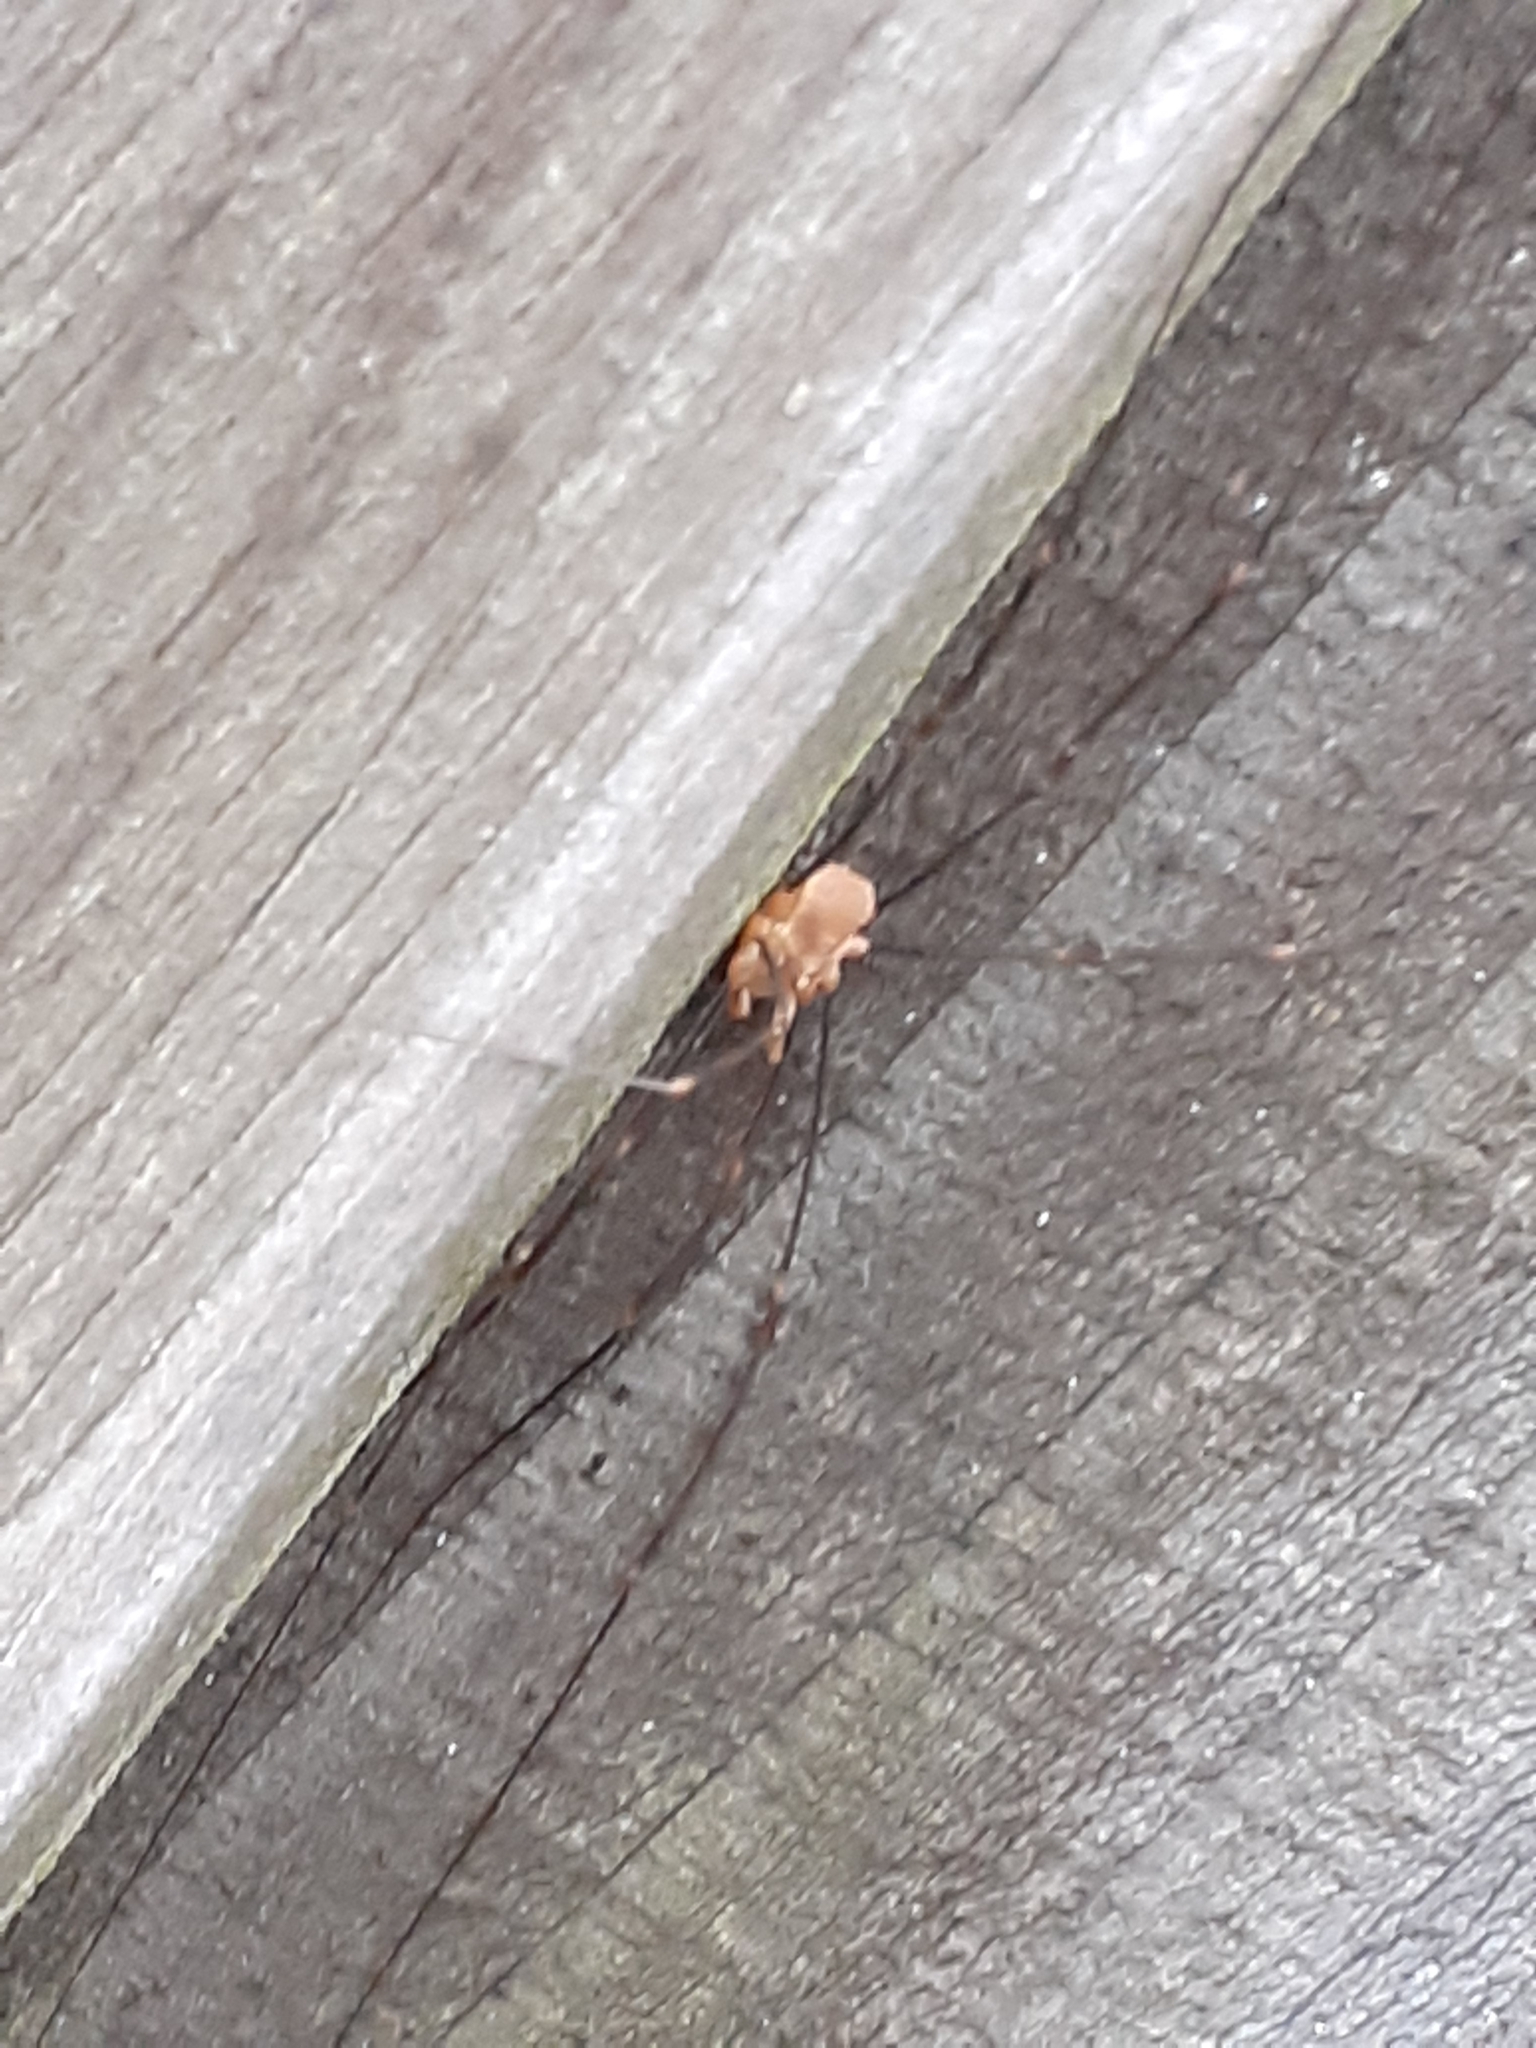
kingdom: Animalia
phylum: Arthropoda
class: Arachnida
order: Opiliones
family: Phalangiidae
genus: Opilio
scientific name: Opilio canestrinii
